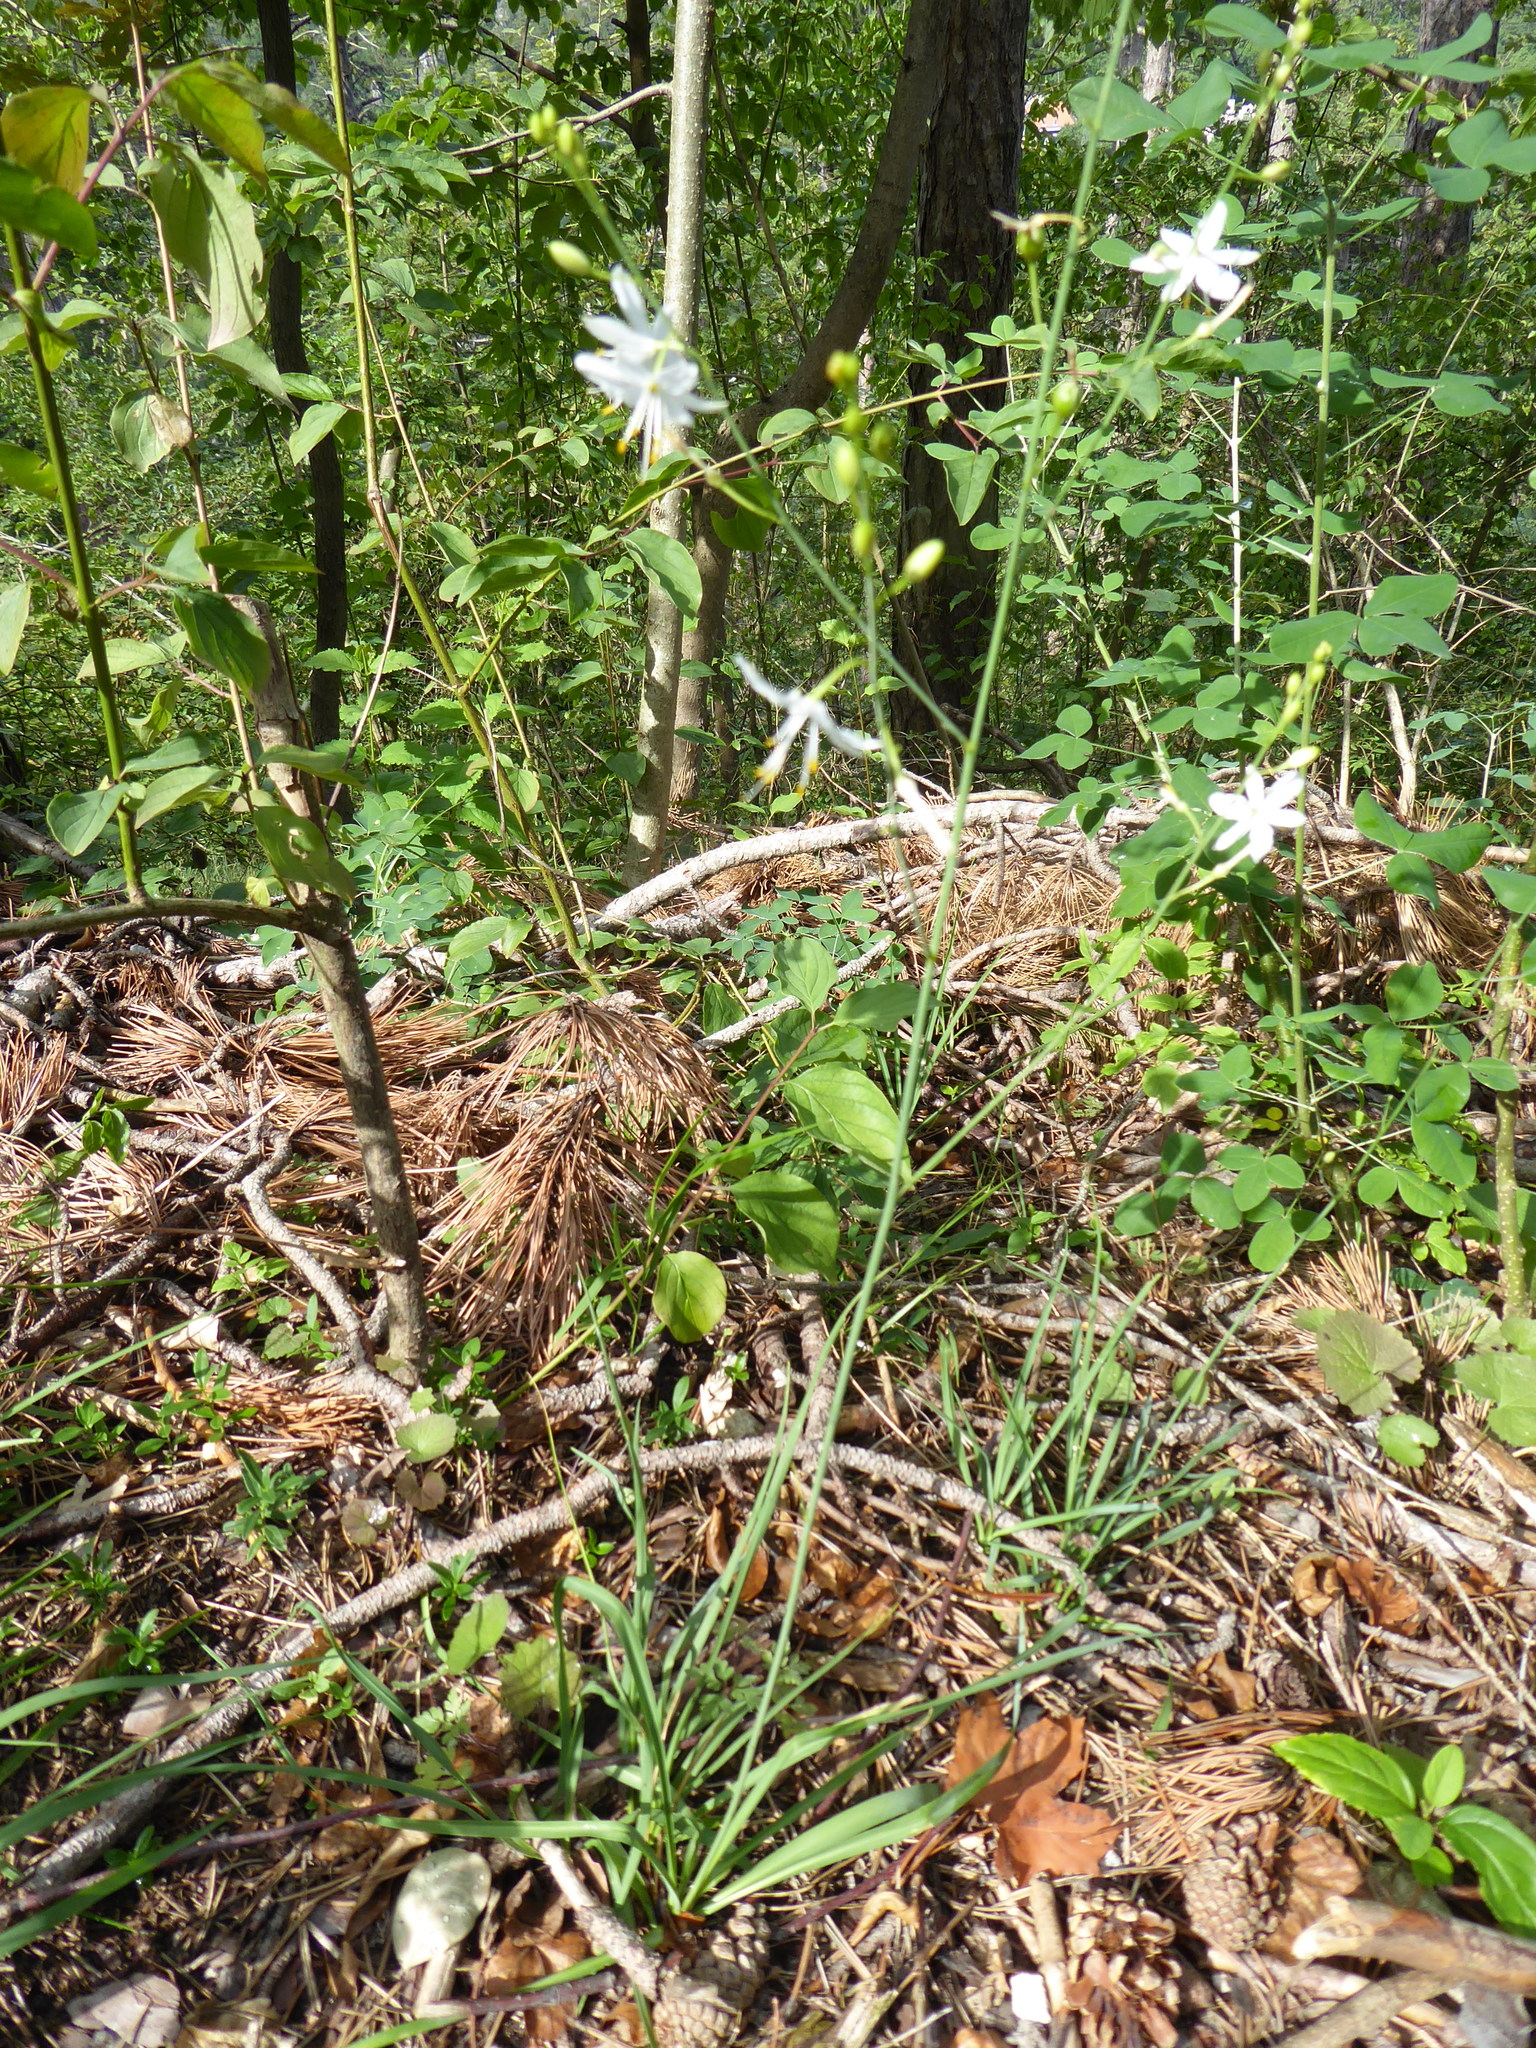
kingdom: Plantae
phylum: Tracheophyta
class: Liliopsida
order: Asparagales
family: Asparagaceae
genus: Anthericum
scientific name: Anthericum ramosum
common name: Branched st. bernard's-lily
